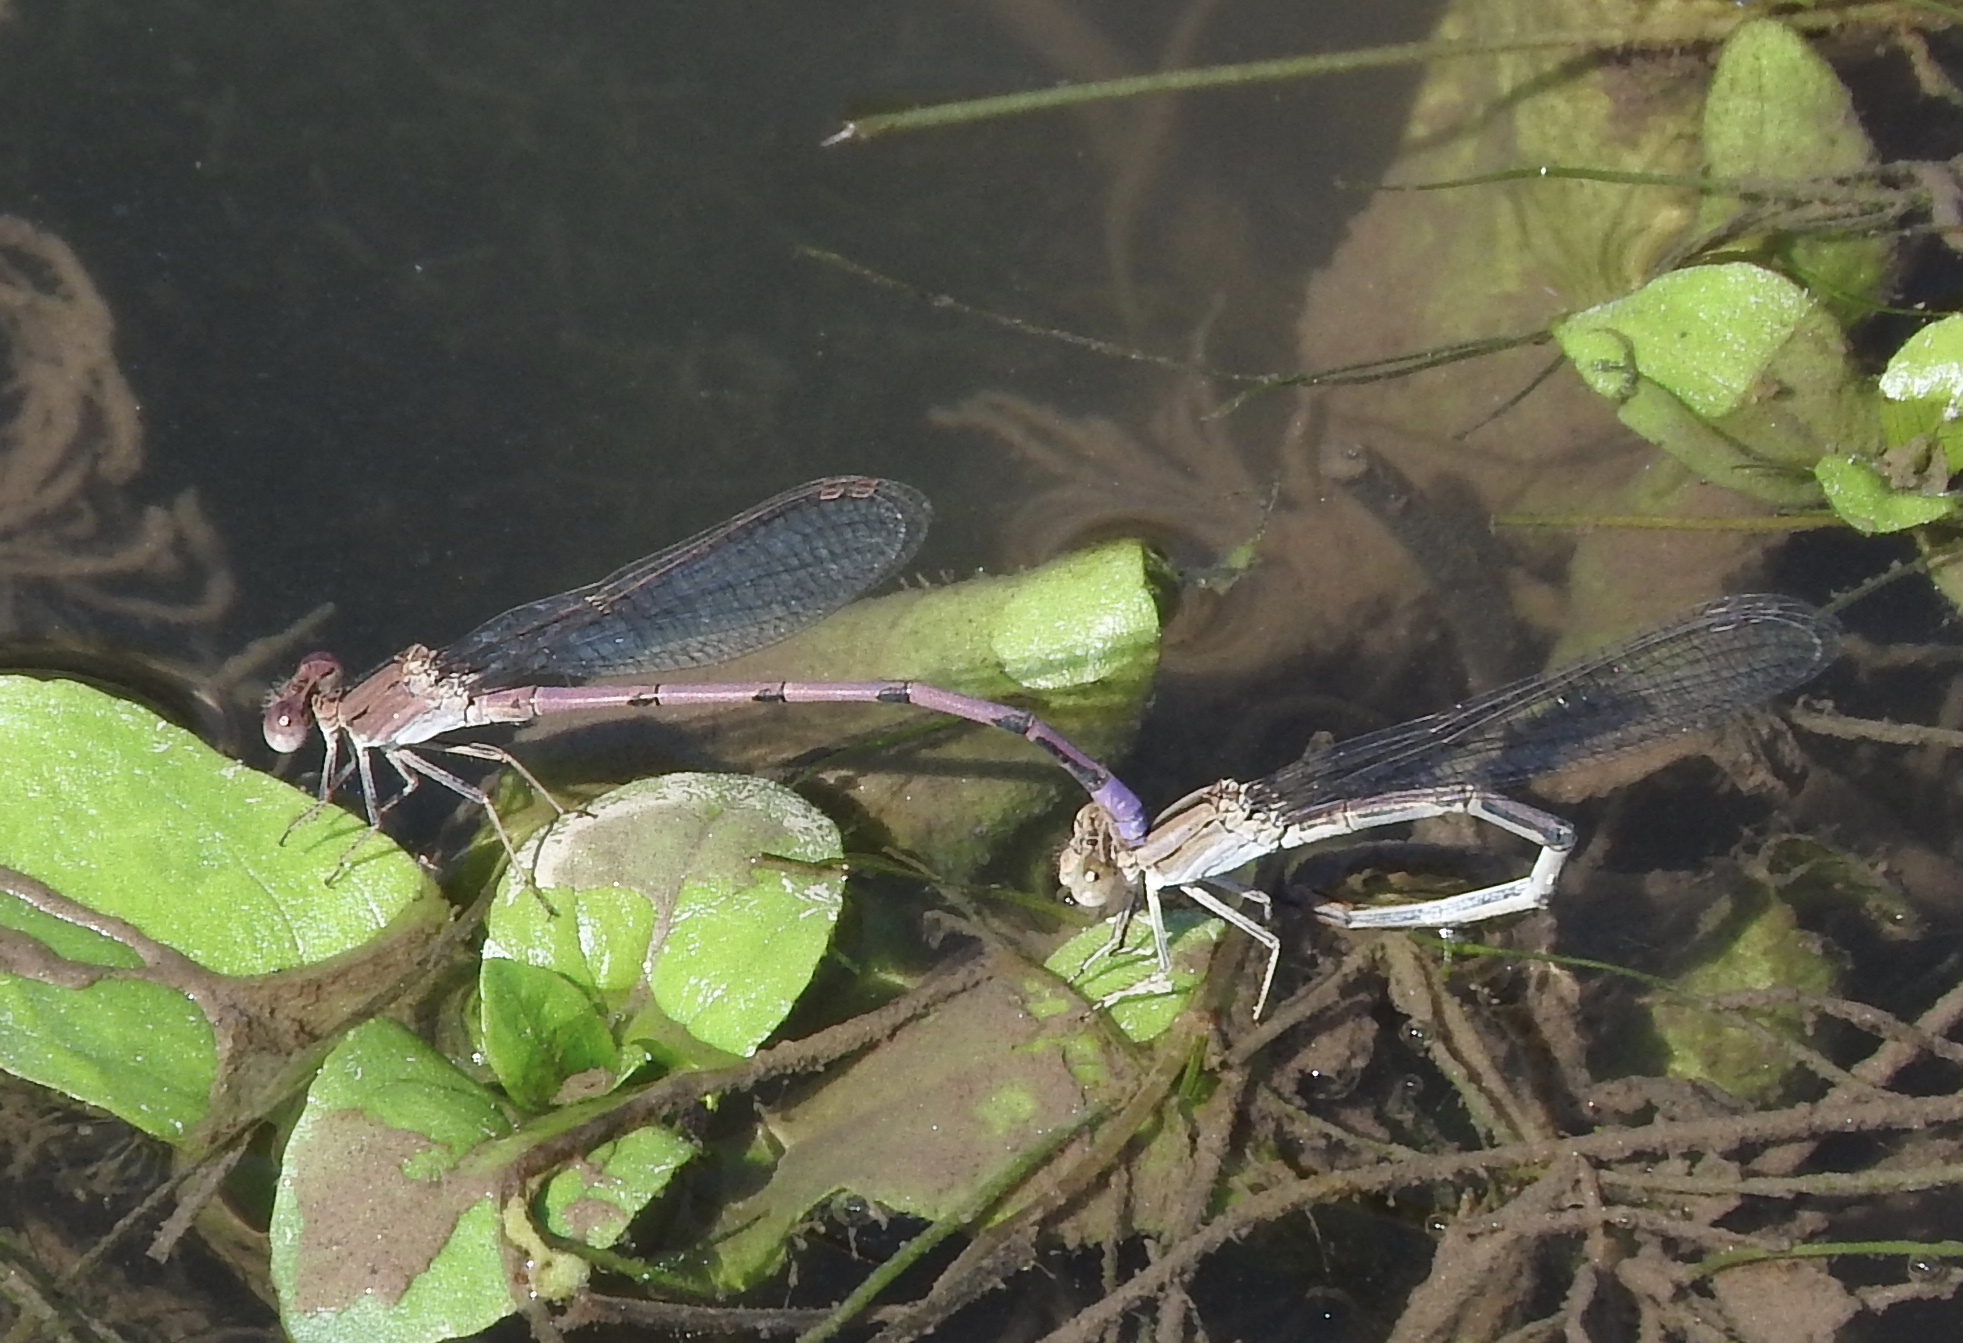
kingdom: Animalia
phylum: Arthropoda
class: Insecta
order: Odonata
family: Coenagrionidae
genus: Argia
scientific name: Argia pallens
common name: Amethyst dancer
